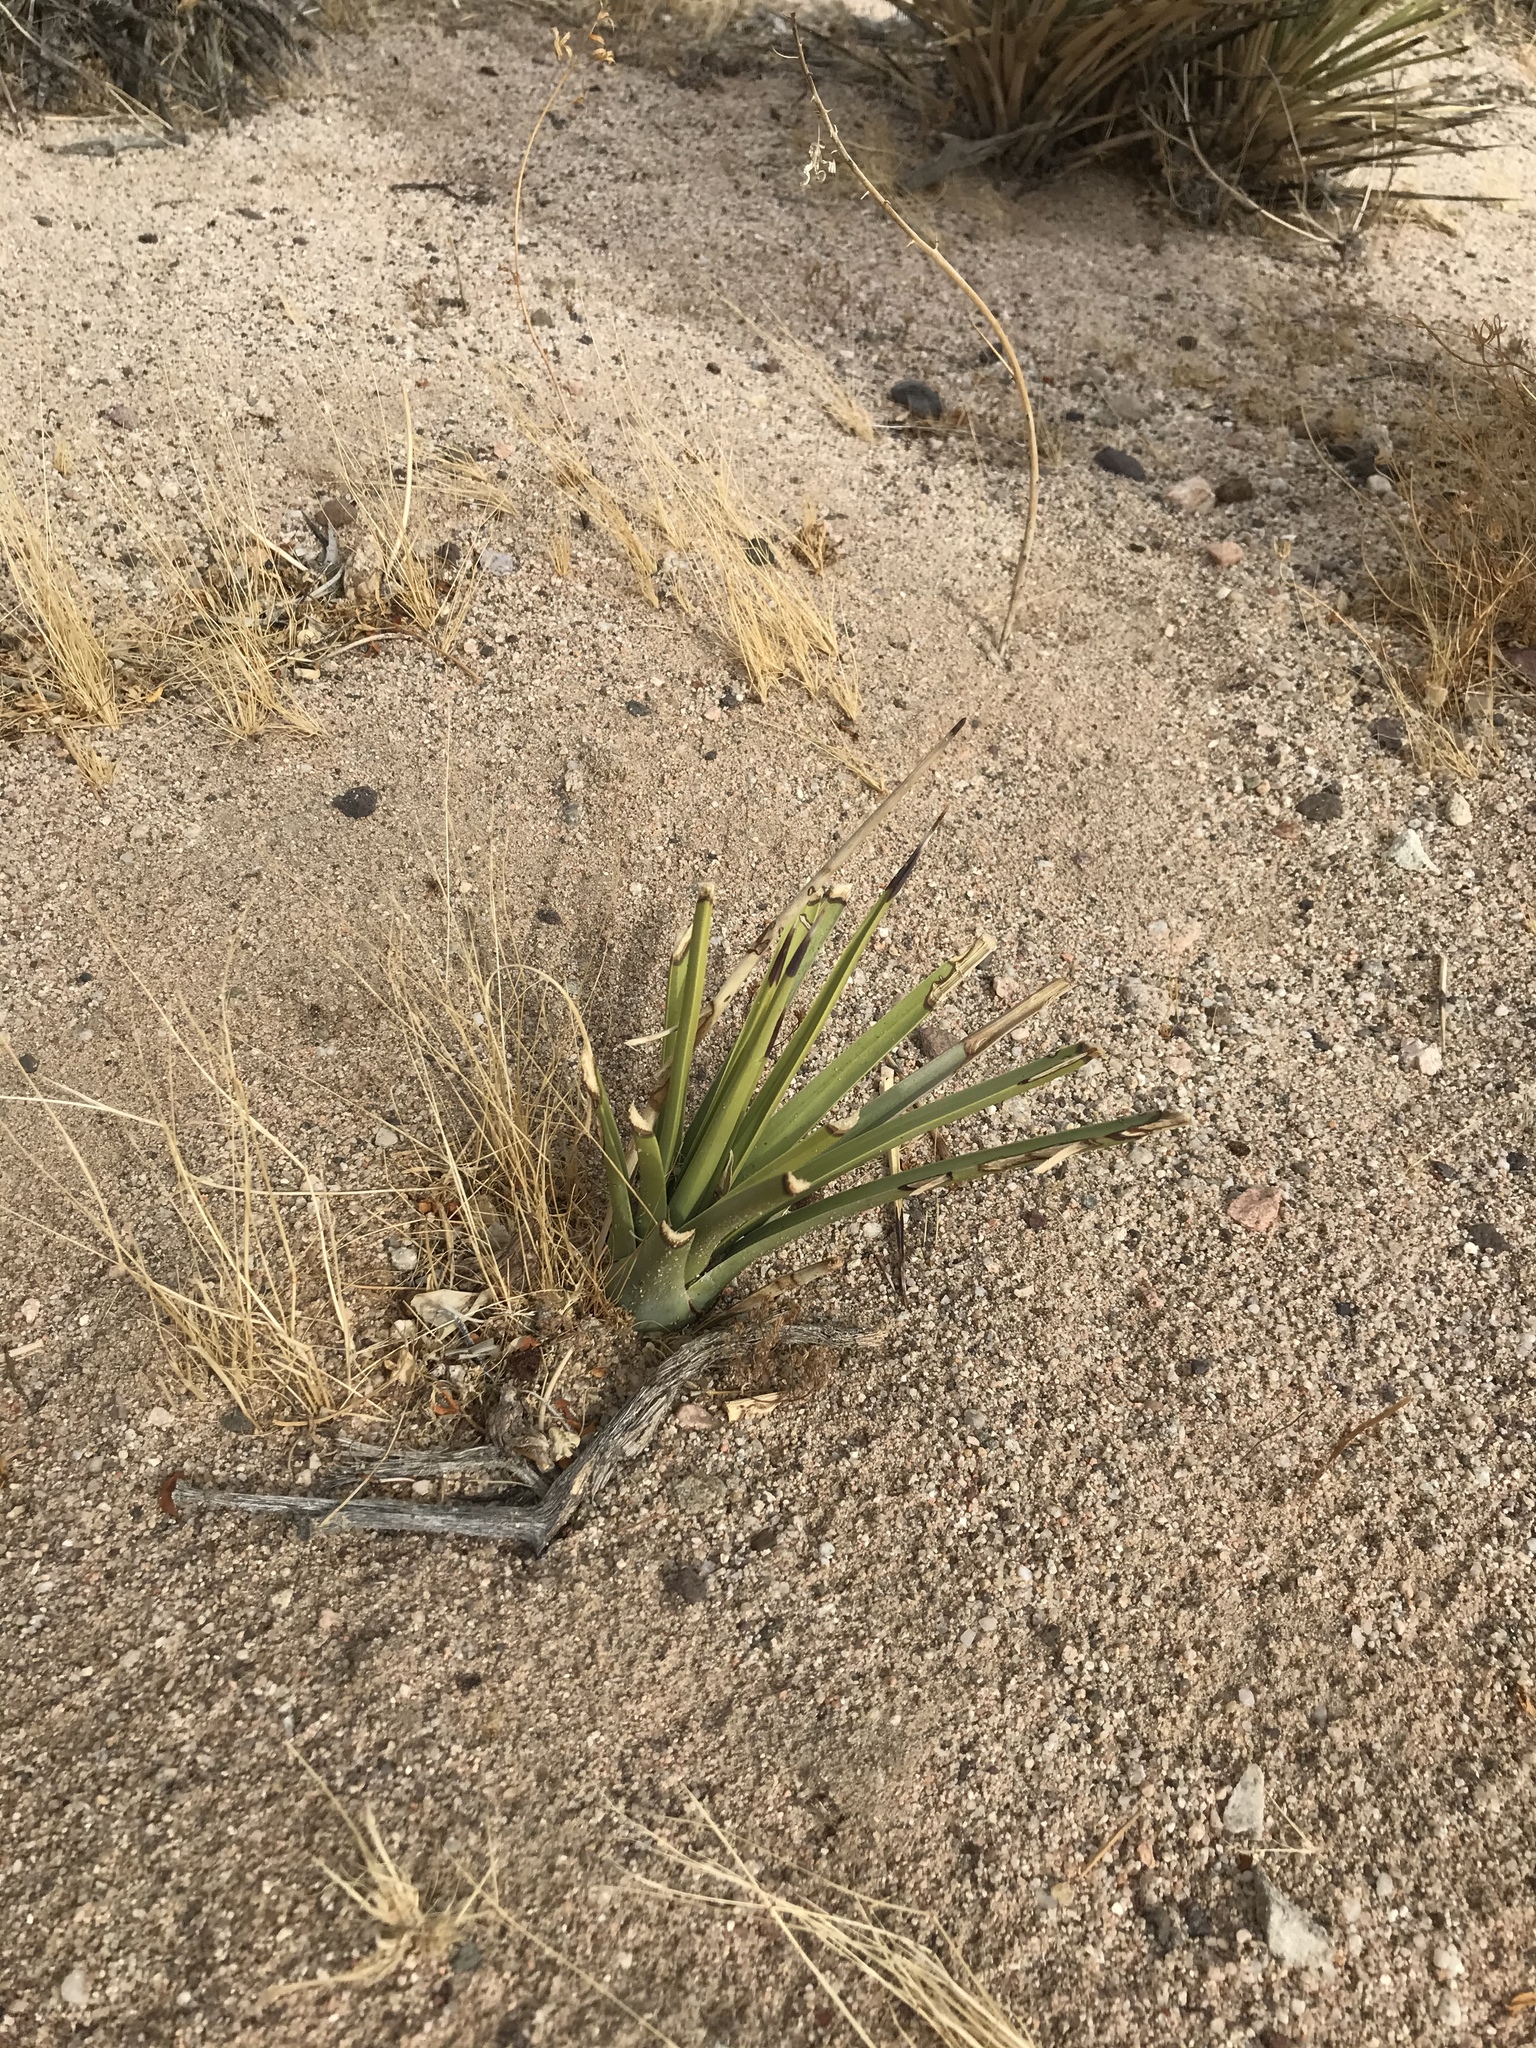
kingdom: Plantae
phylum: Tracheophyta
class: Liliopsida
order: Asparagales
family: Asparagaceae
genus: Yucca
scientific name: Yucca brevifolia
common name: Joshua tree
